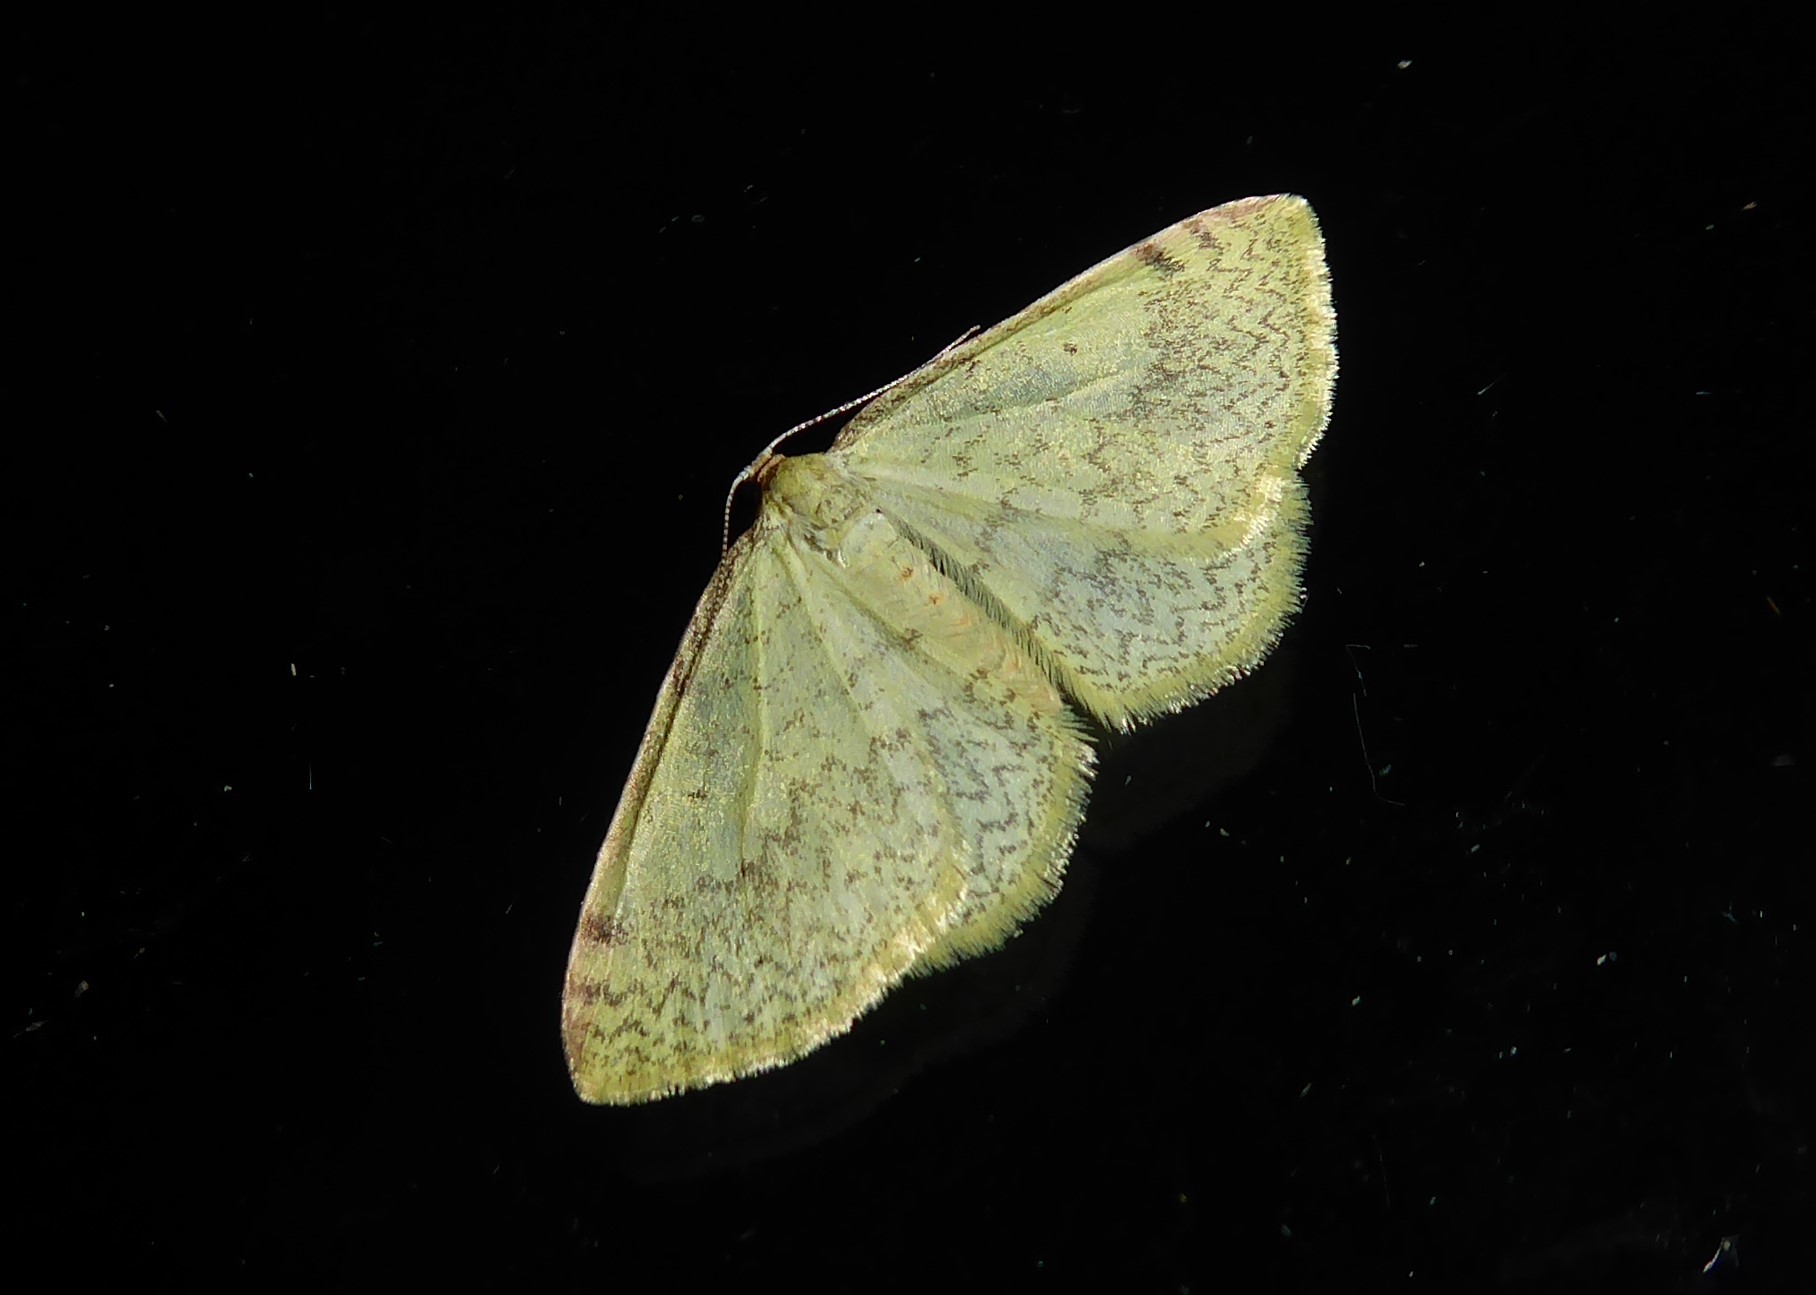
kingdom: Animalia
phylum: Arthropoda
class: Insecta
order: Lepidoptera
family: Geometridae
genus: Epiphryne
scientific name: Epiphryne undosata
